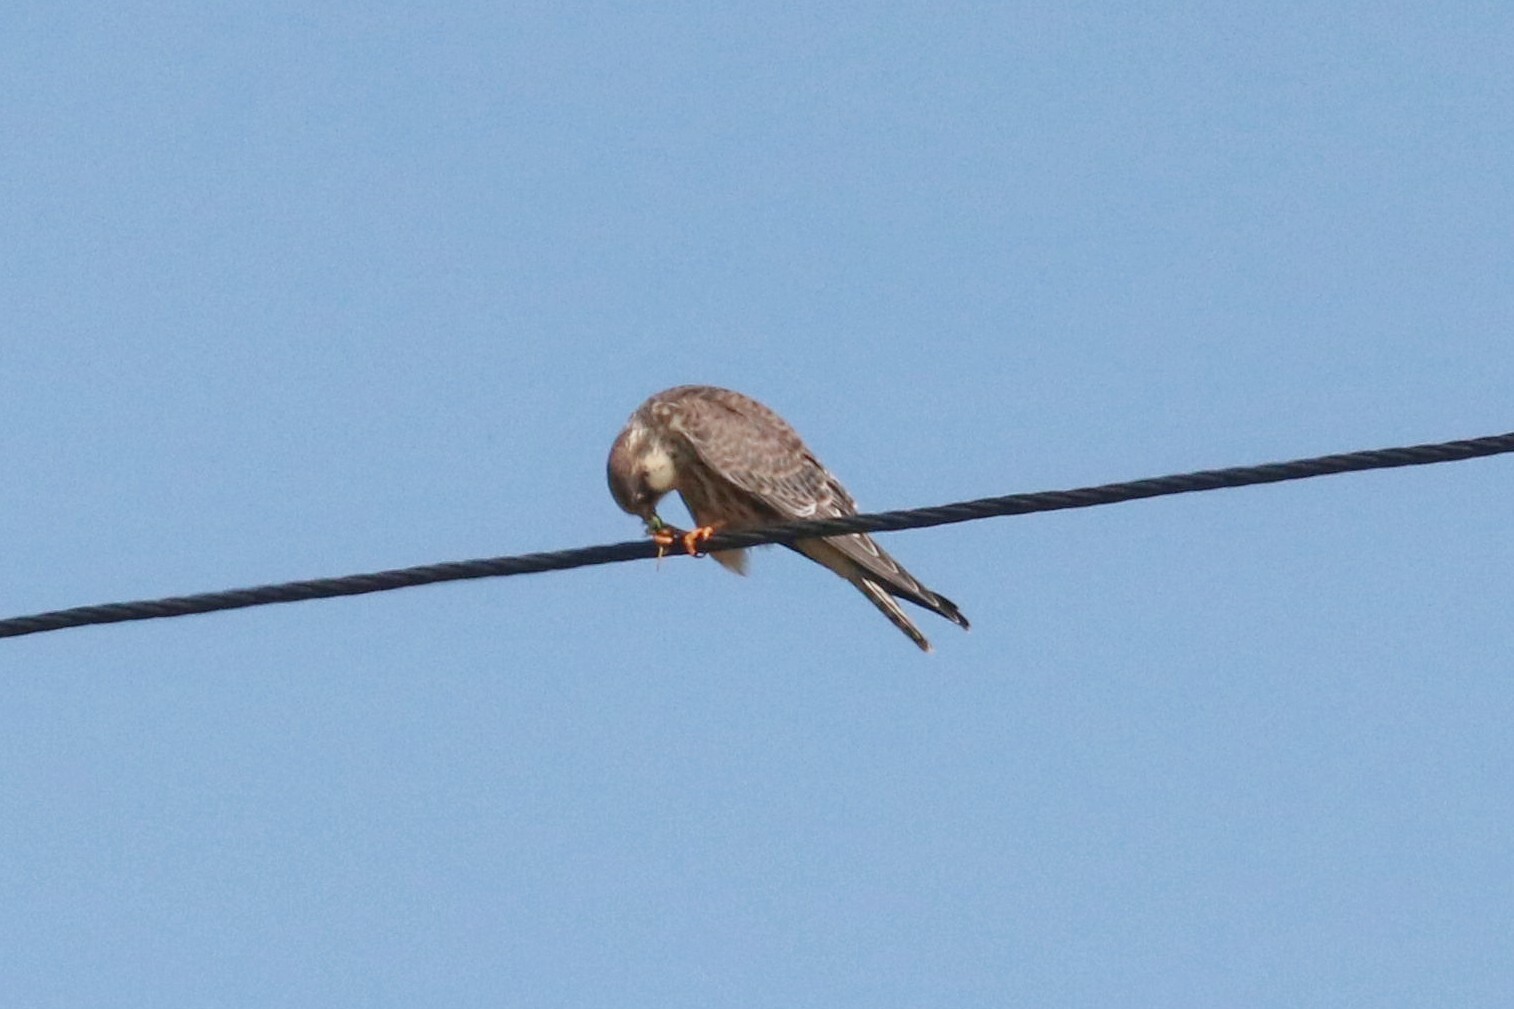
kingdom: Animalia
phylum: Chordata
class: Aves
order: Falconiformes
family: Falconidae
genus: Falco
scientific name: Falco vespertinus
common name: Red-footed falcon
